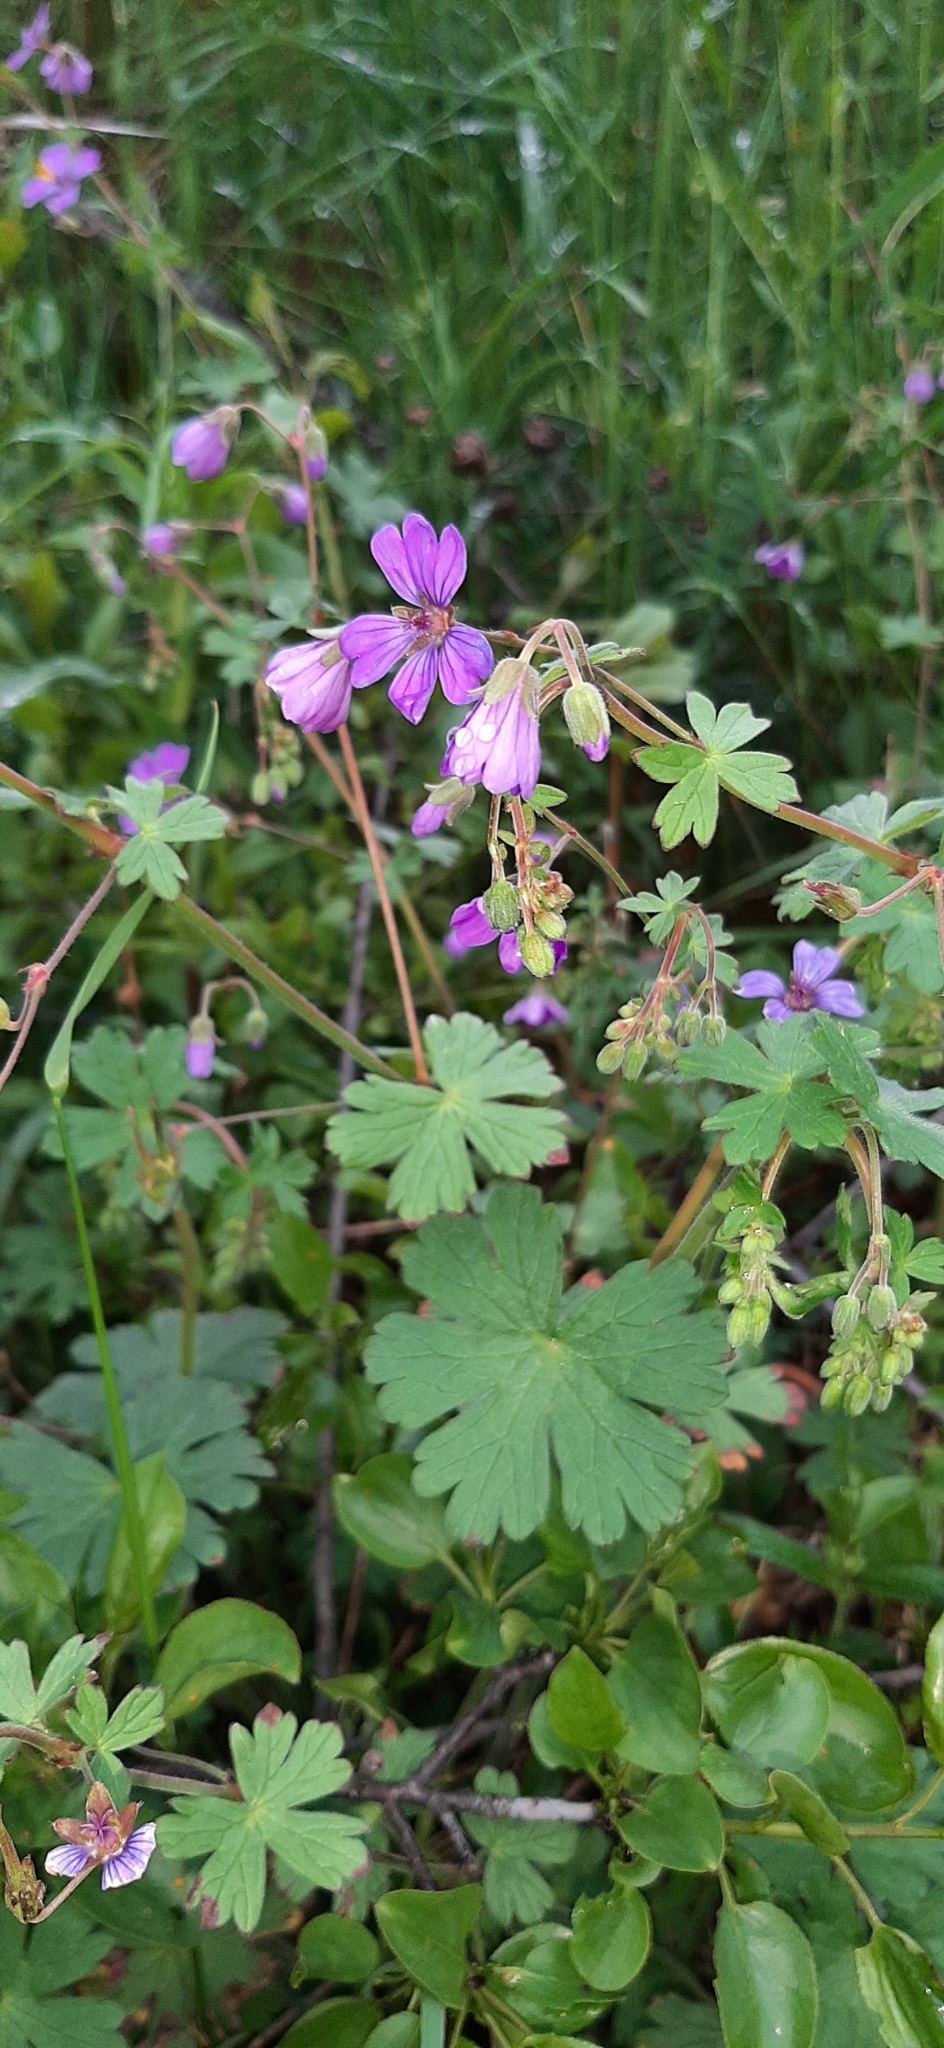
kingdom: Plantae
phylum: Tracheophyta
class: Magnoliopsida
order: Geraniales
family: Geraniaceae
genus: Geranium
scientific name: Geranium pyrenaicum
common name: Hedgerow crane's-bill
